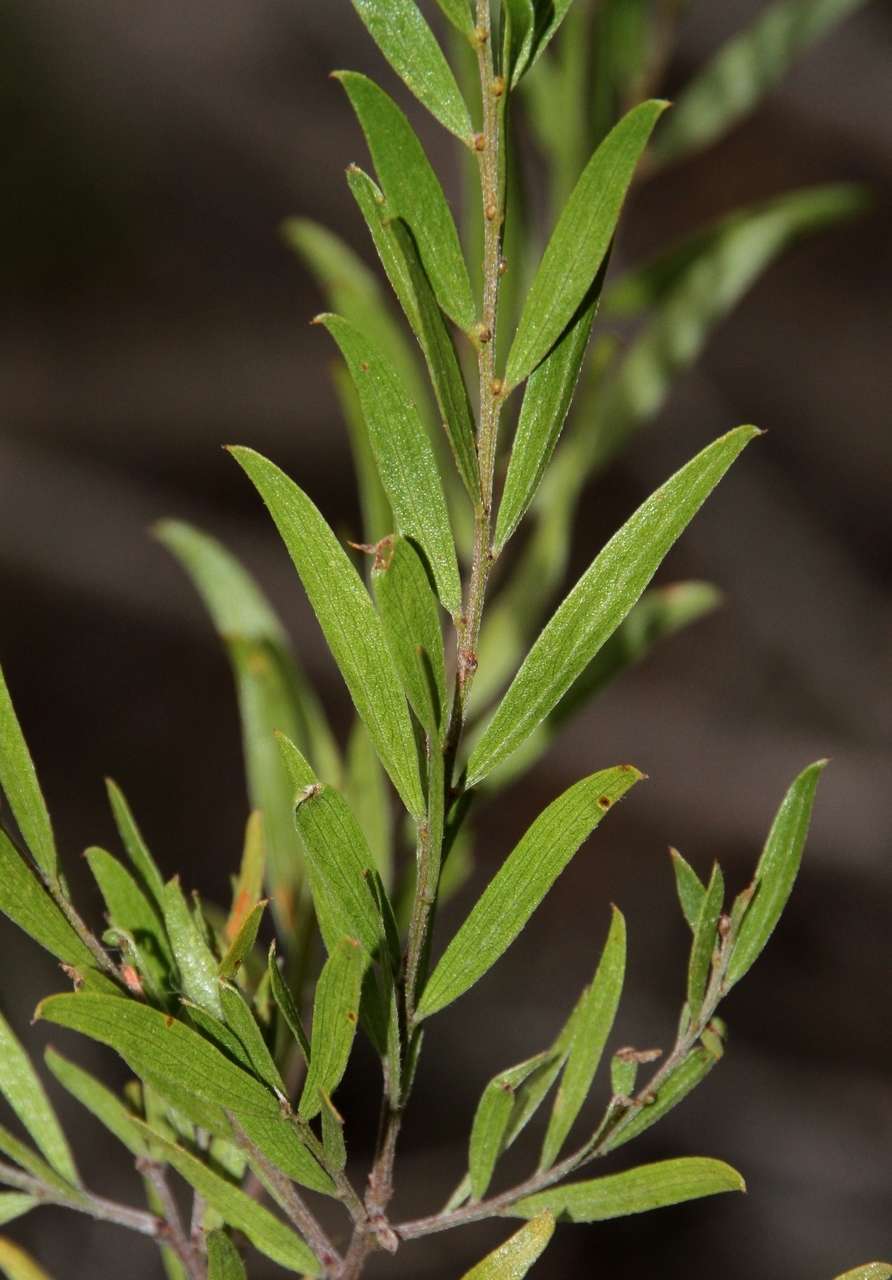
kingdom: Plantae
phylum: Tracheophyta
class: Magnoliopsida
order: Fabales
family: Fabaceae
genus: Acacia
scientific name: Acacia rostriformis
